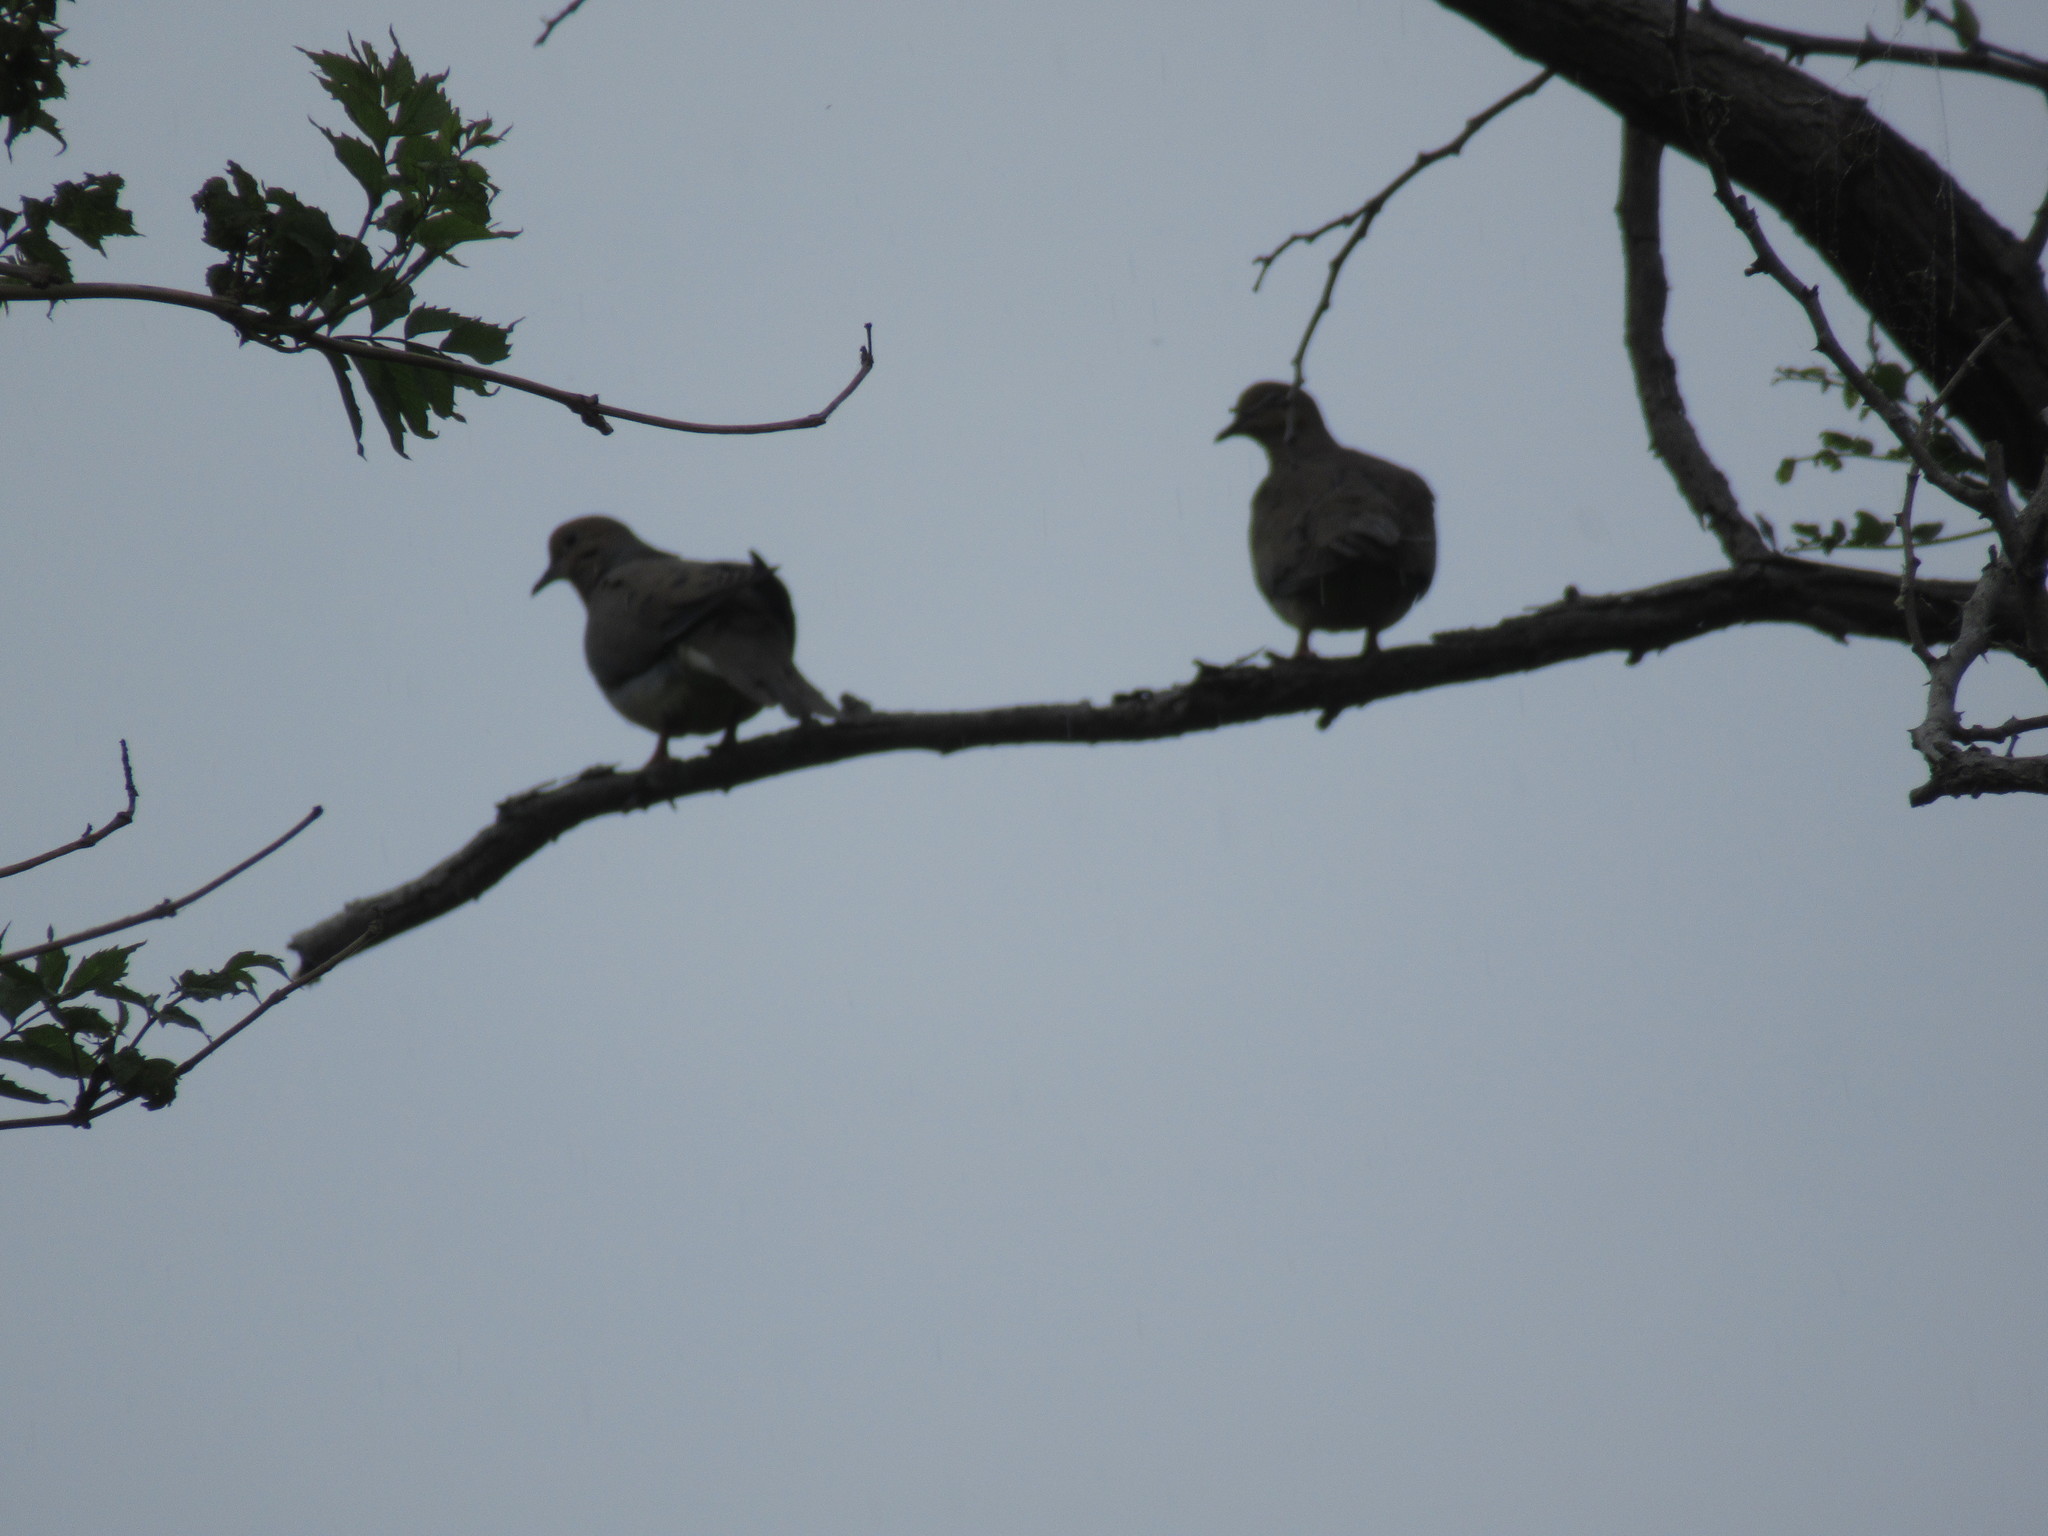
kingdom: Animalia
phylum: Chordata
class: Aves
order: Columbiformes
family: Columbidae
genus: Zenaida
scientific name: Zenaida macroura
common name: Mourning dove
